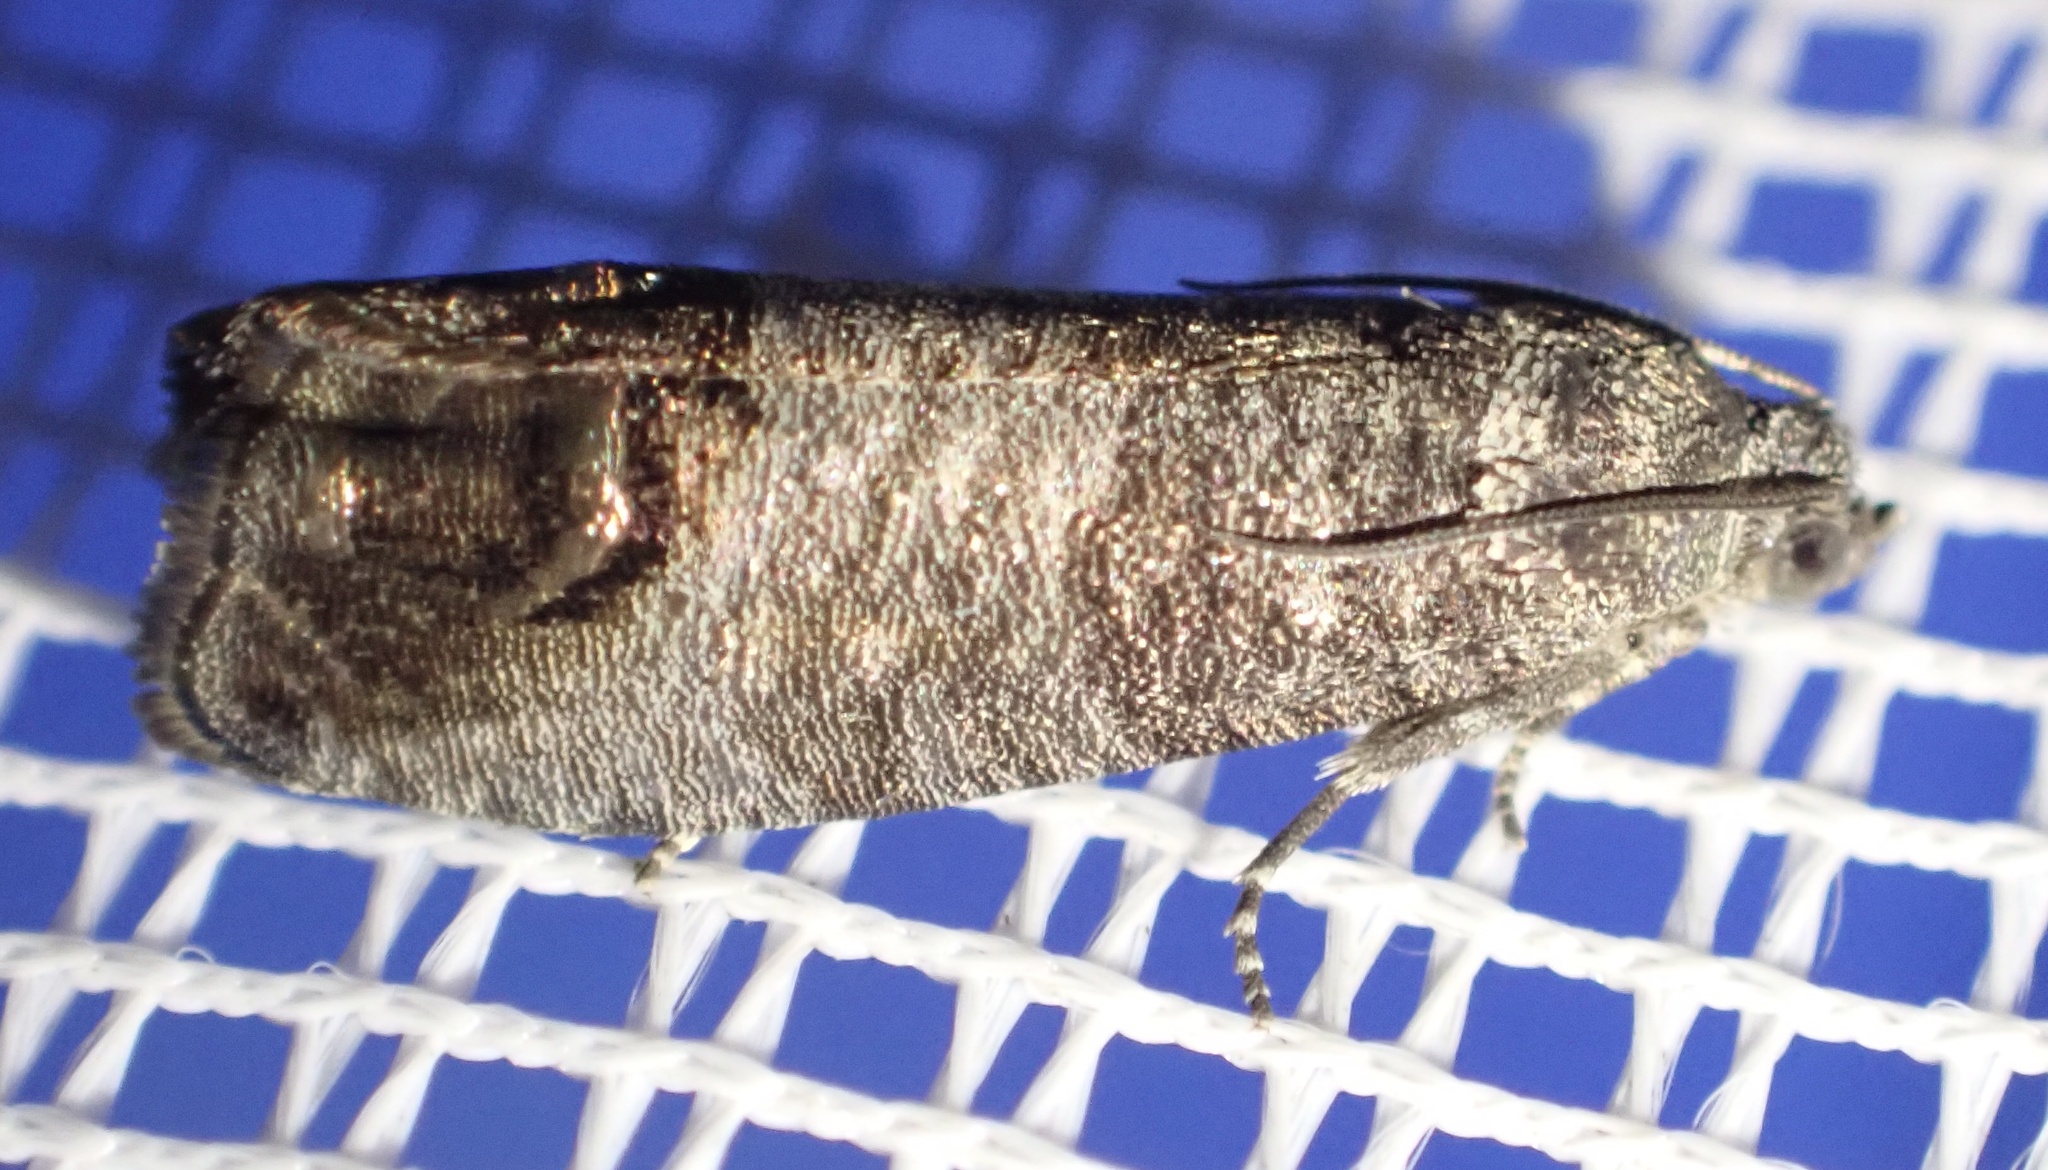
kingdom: Animalia
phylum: Arthropoda
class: Insecta
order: Lepidoptera
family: Tortricidae
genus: Cydia
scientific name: Cydia pomonella
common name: Codling moth
